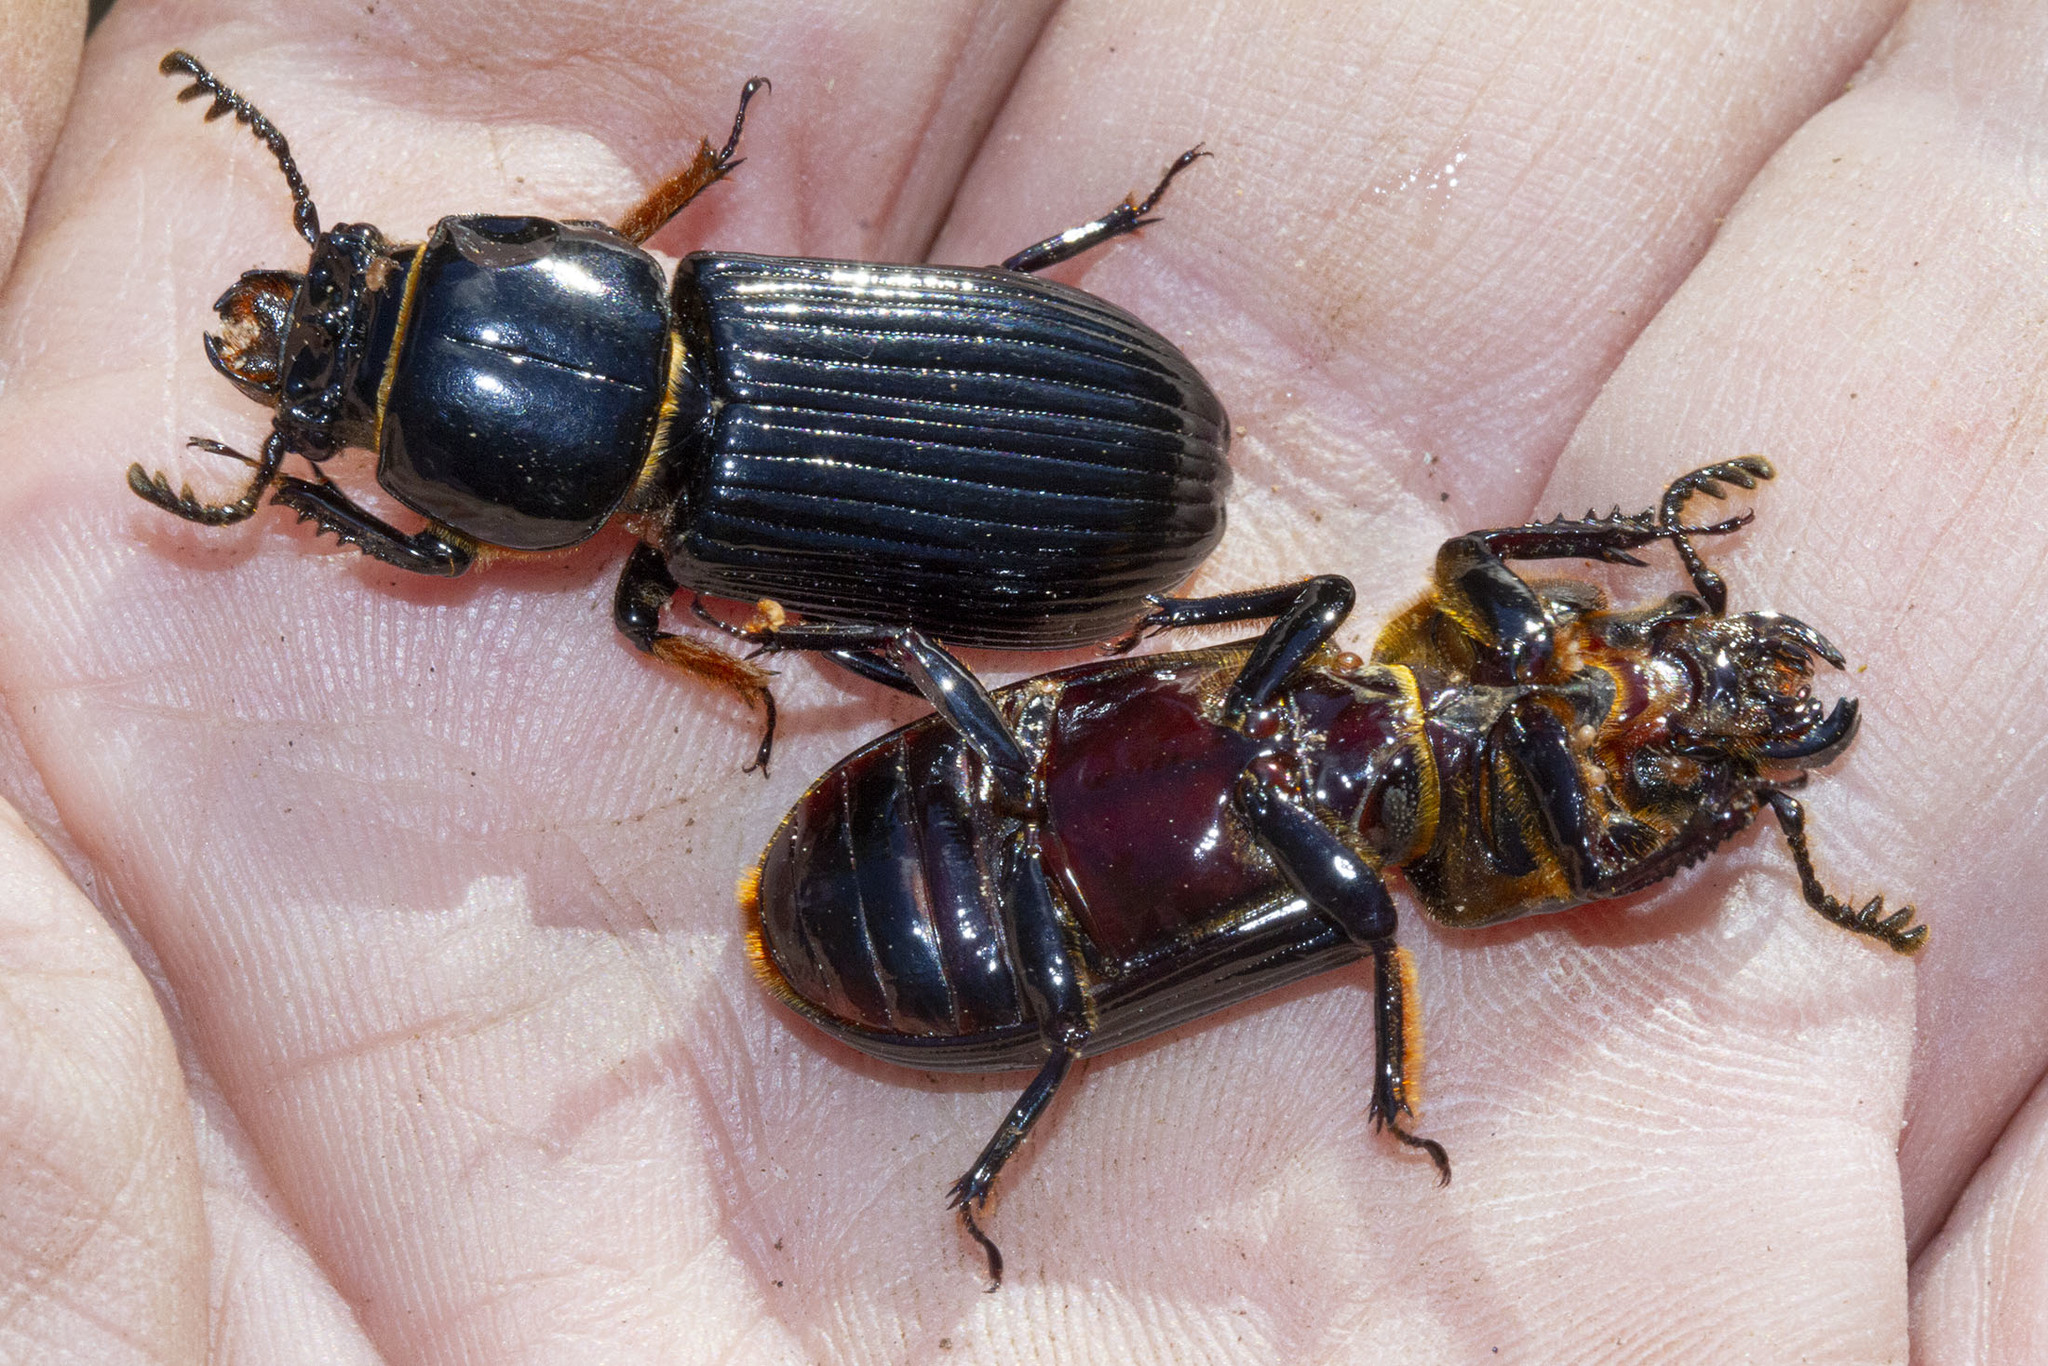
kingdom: Animalia
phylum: Arthropoda
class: Insecta
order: Coleoptera
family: Passalidae
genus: Odontotaenius
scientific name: Odontotaenius disjunctus
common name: Patent leather beetle
